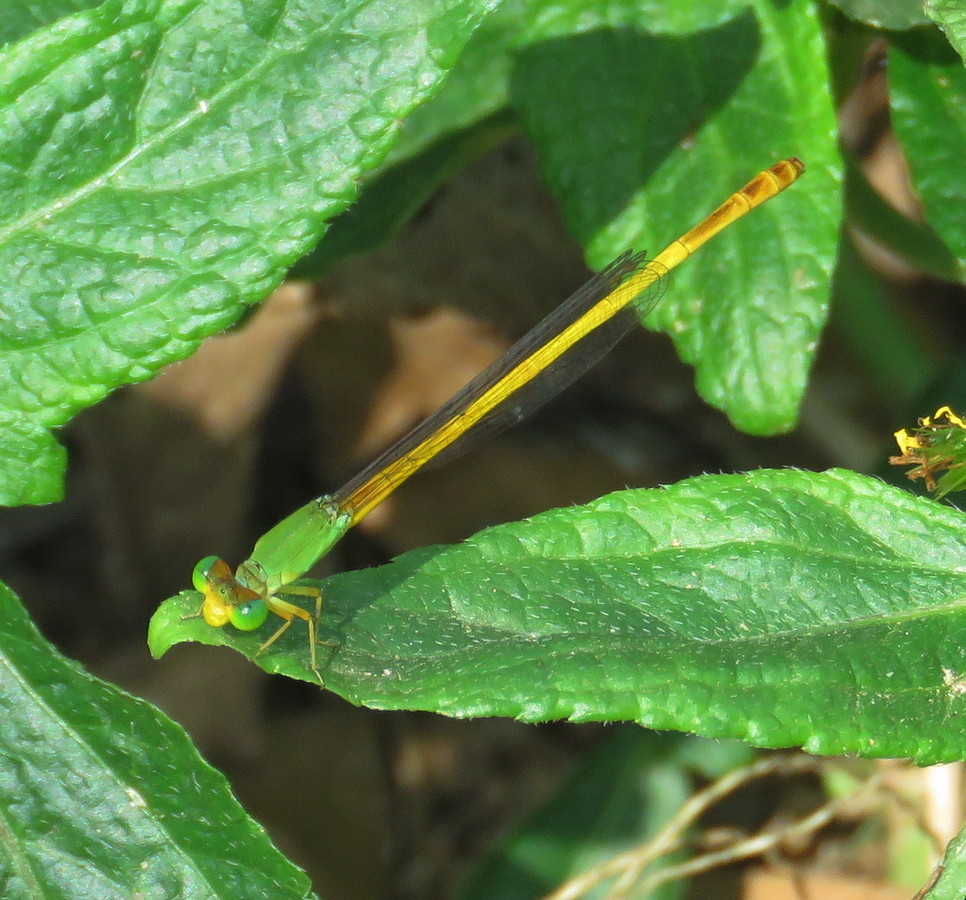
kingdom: Animalia
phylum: Arthropoda
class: Insecta
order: Odonata
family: Coenagrionidae
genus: Ceriagrion
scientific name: Ceriagrion coromandelianum
